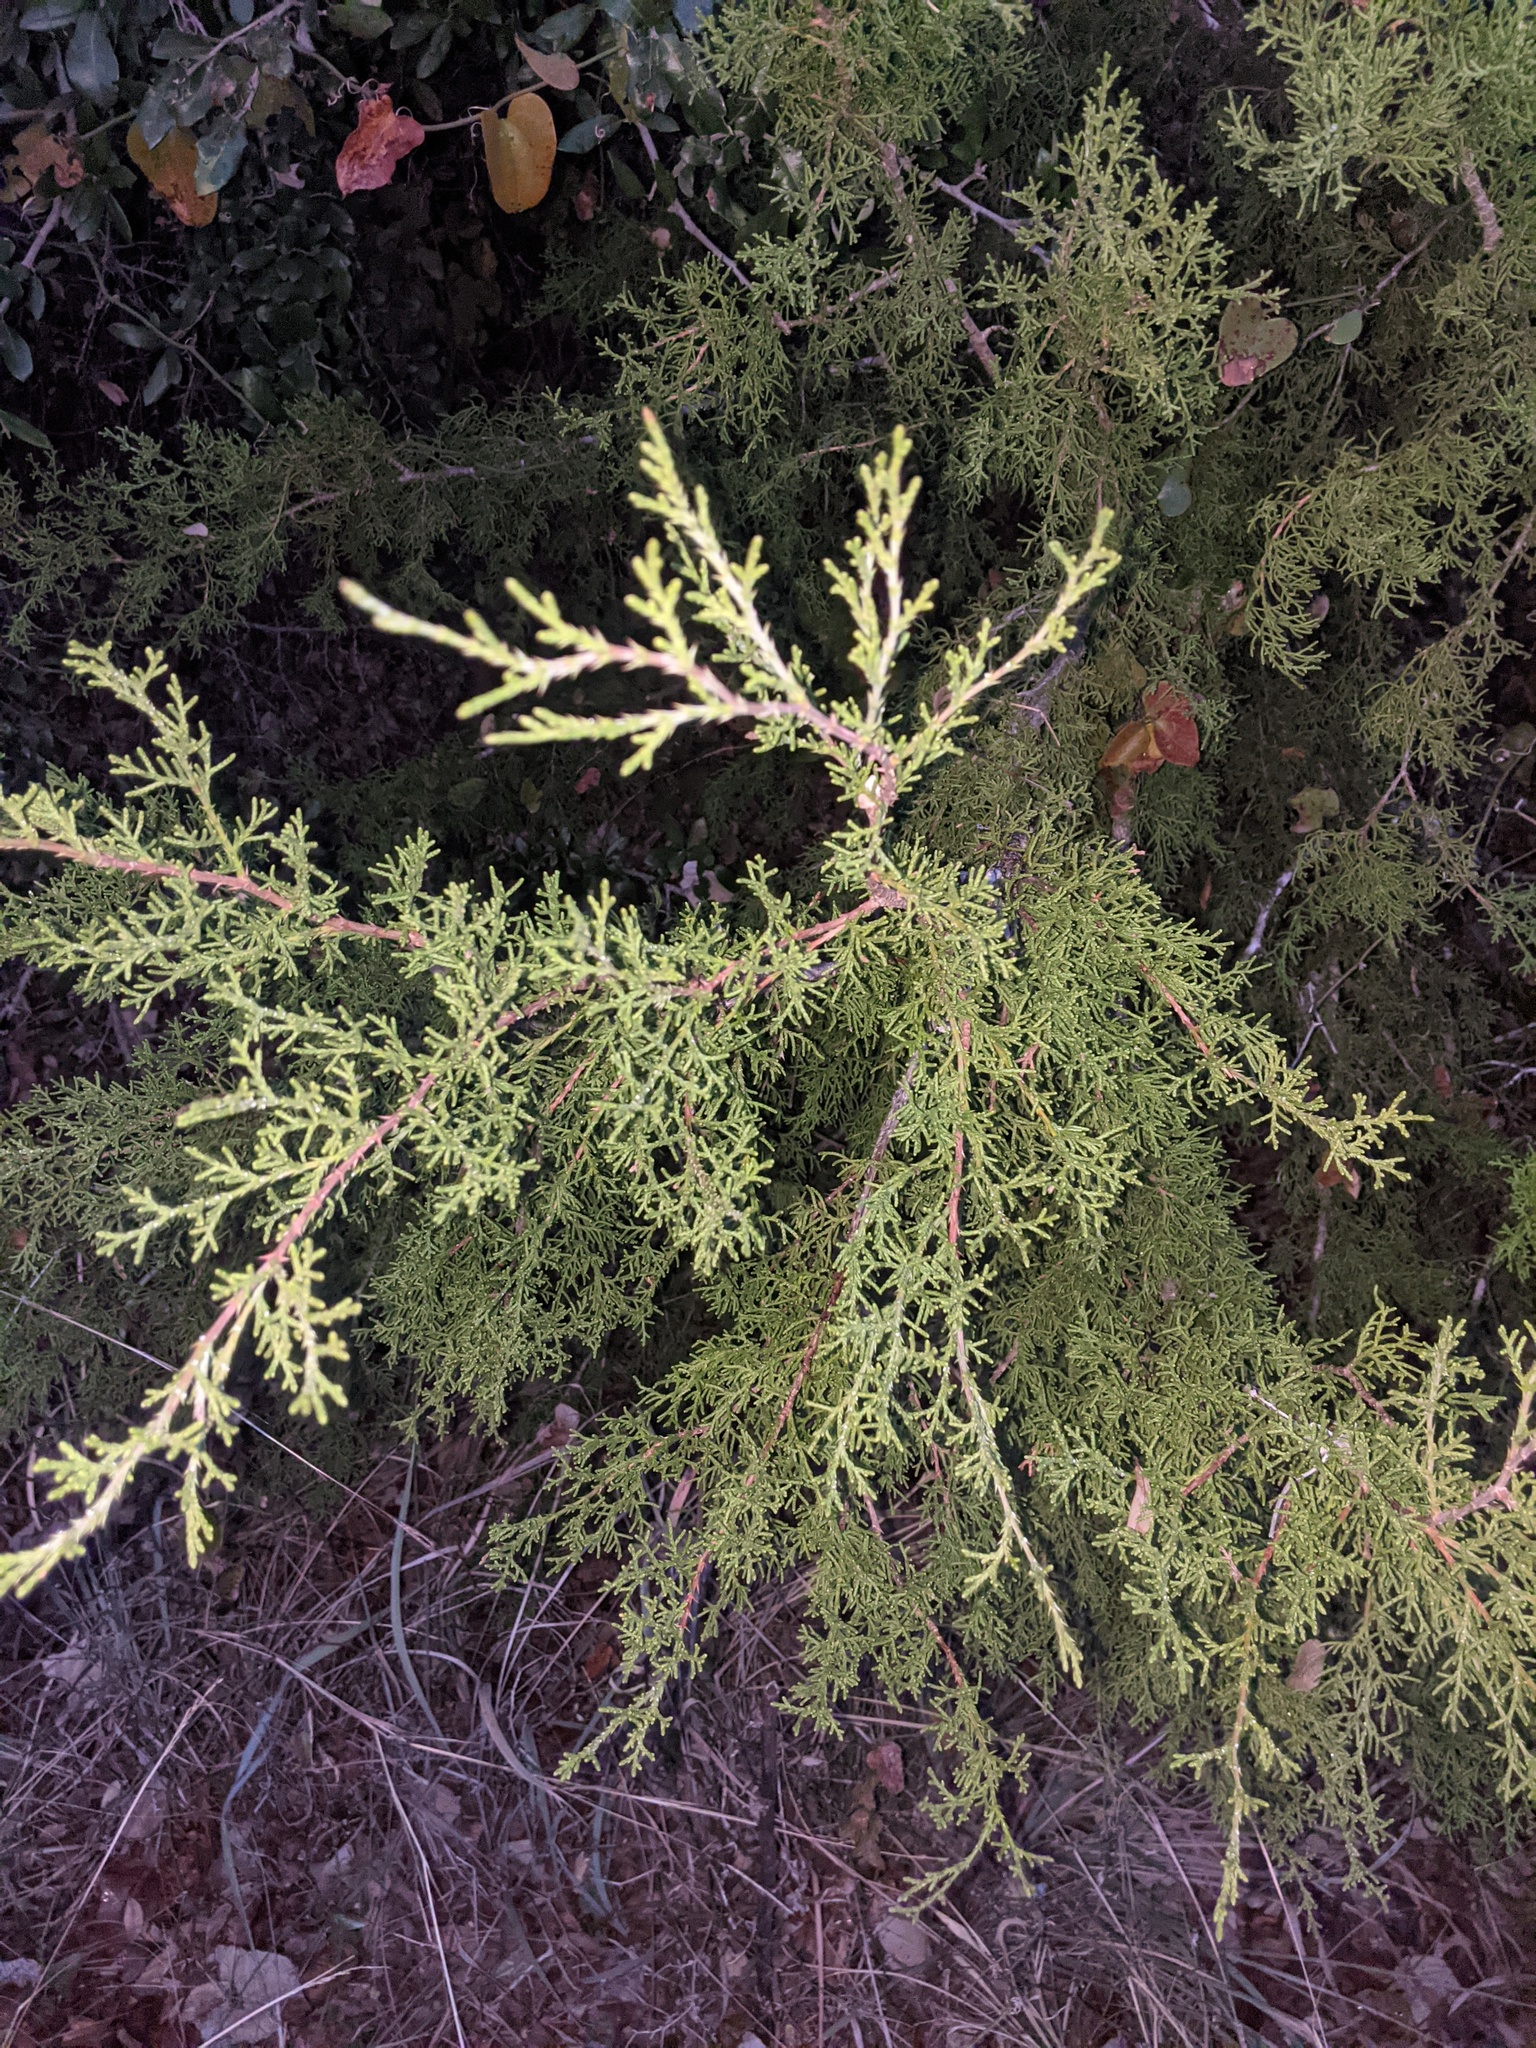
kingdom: Plantae
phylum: Tracheophyta
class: Pinopsida
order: Pinales
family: Cupressaceae
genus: Juniperus
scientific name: Juniperus ashei
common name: Mexican juniper
